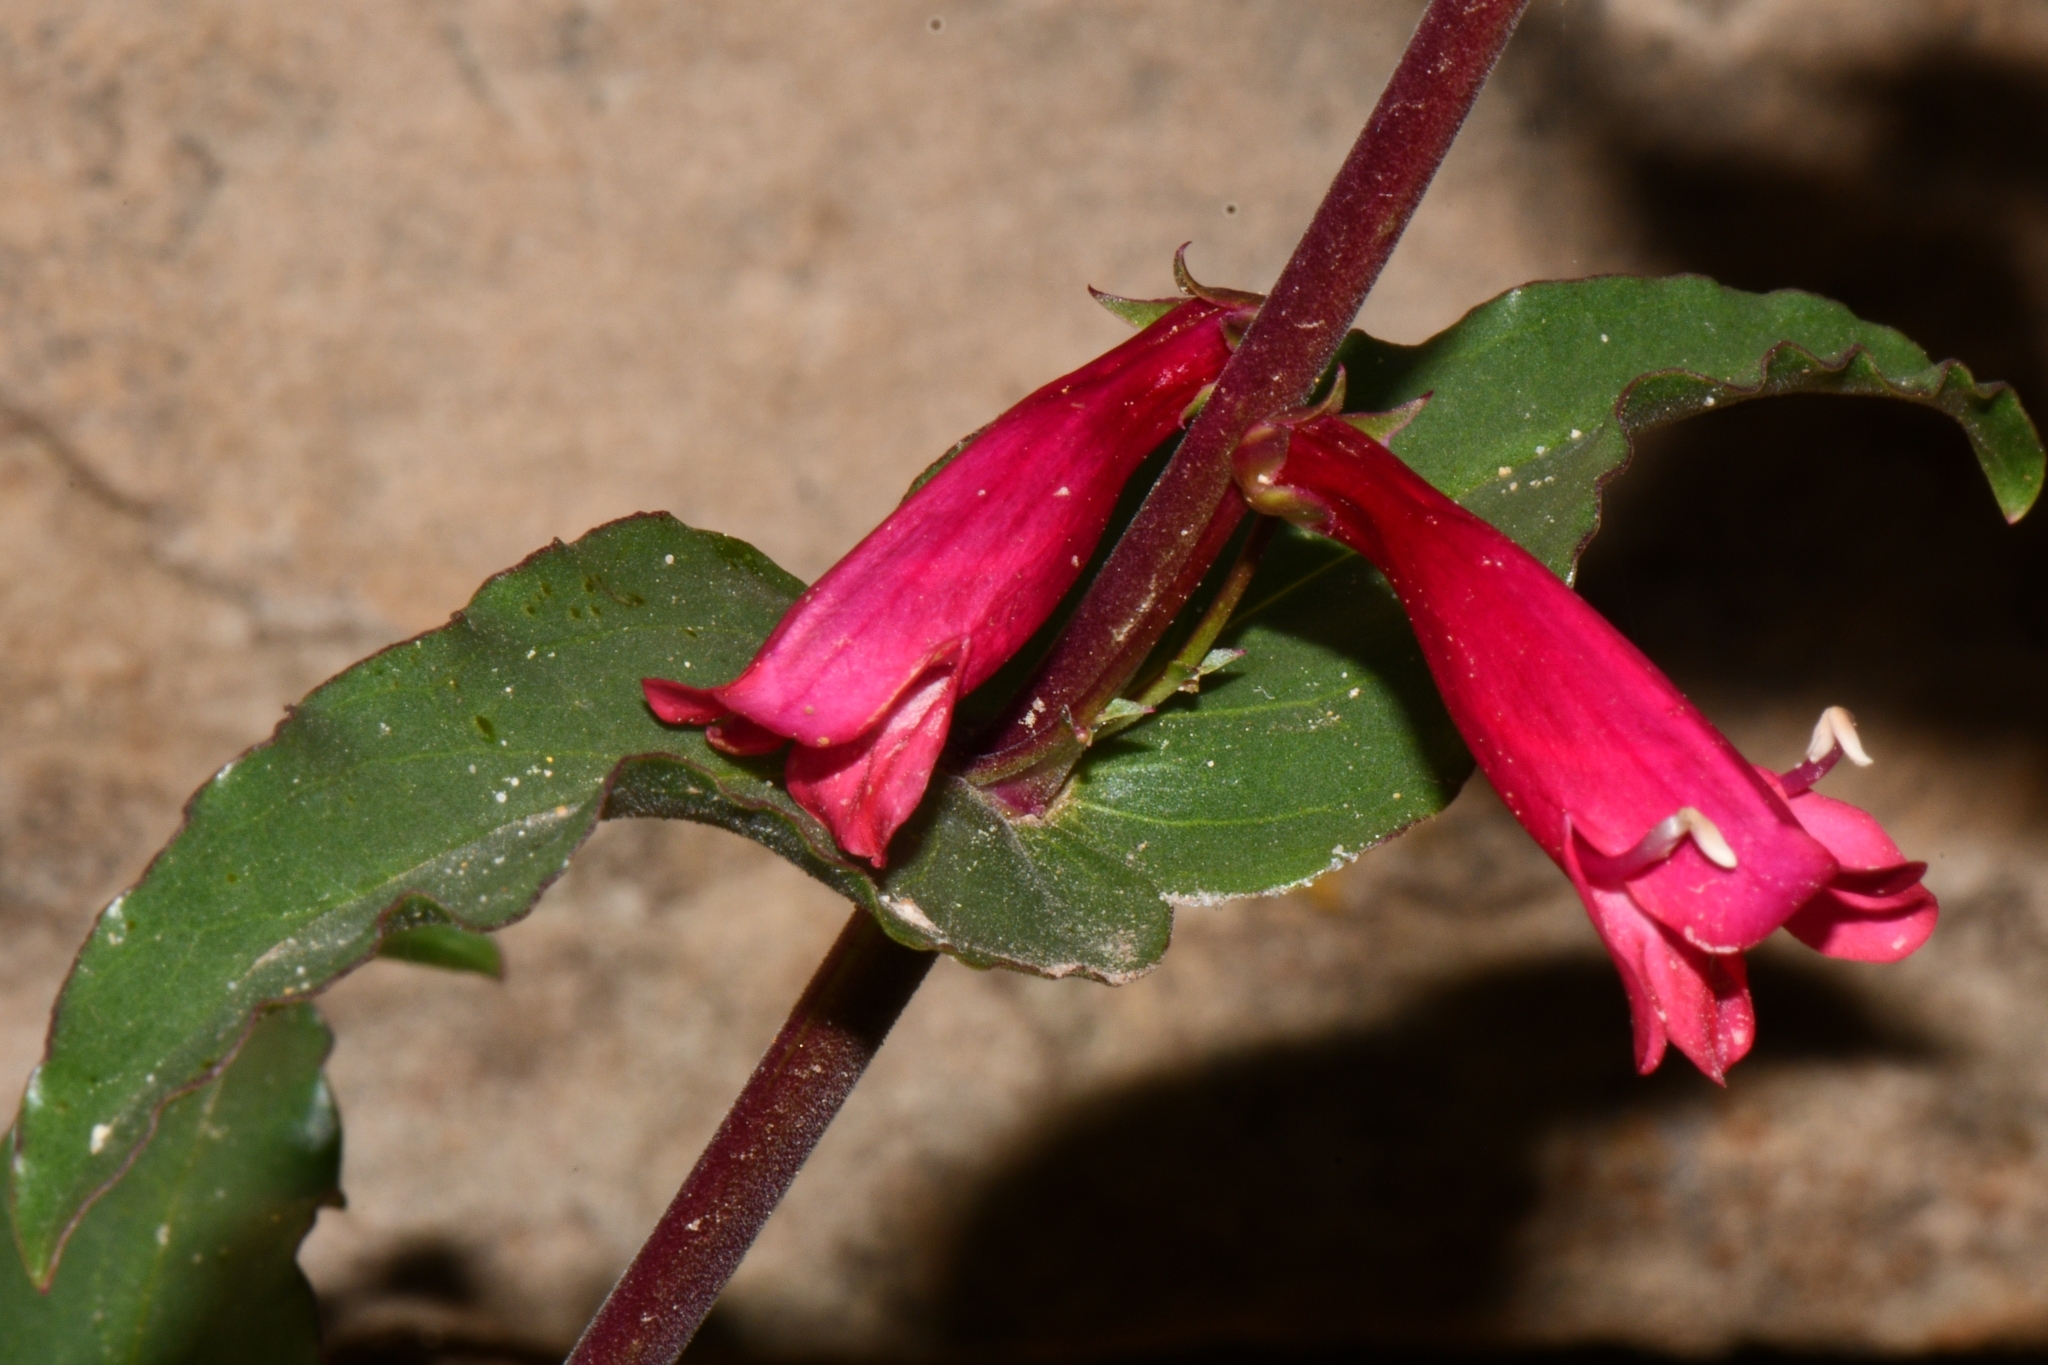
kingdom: Plantae
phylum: Tracheophyta
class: Magnoliopsida
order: Lamiales
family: Plantaginaceae
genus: Penstemon
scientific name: Penstemon jonesii
